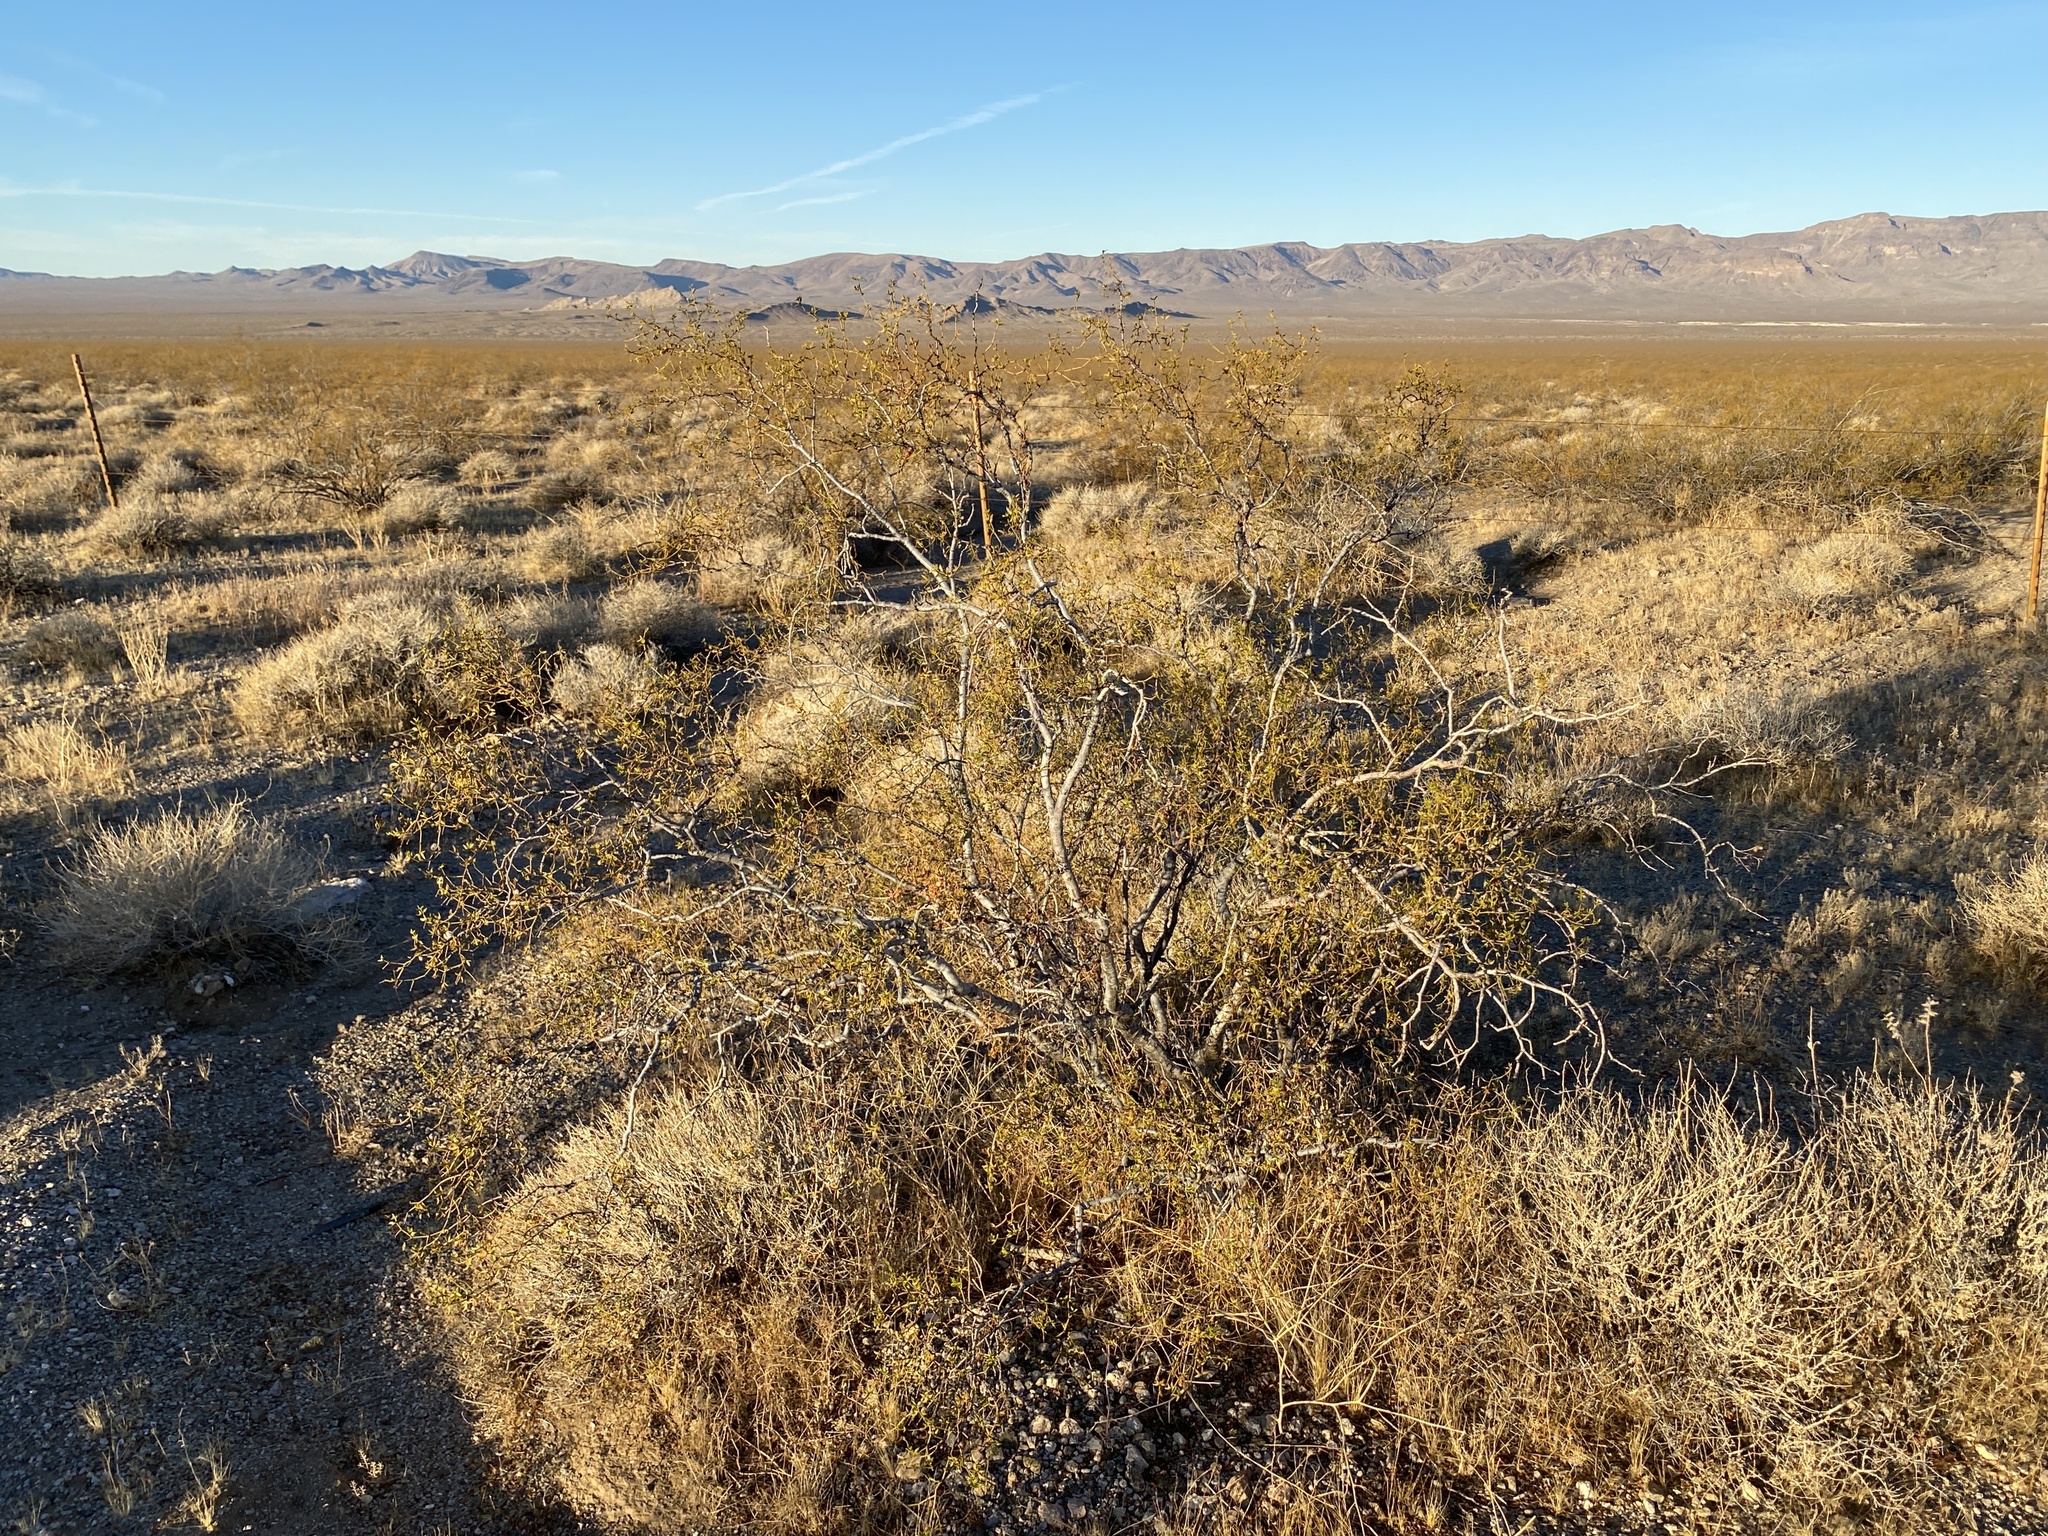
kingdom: Plantae
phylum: Tracheophyta
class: Magnoliopsida
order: Zygophyllales
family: Zygophyllaceae
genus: Larrea
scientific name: Larrea tridentata
